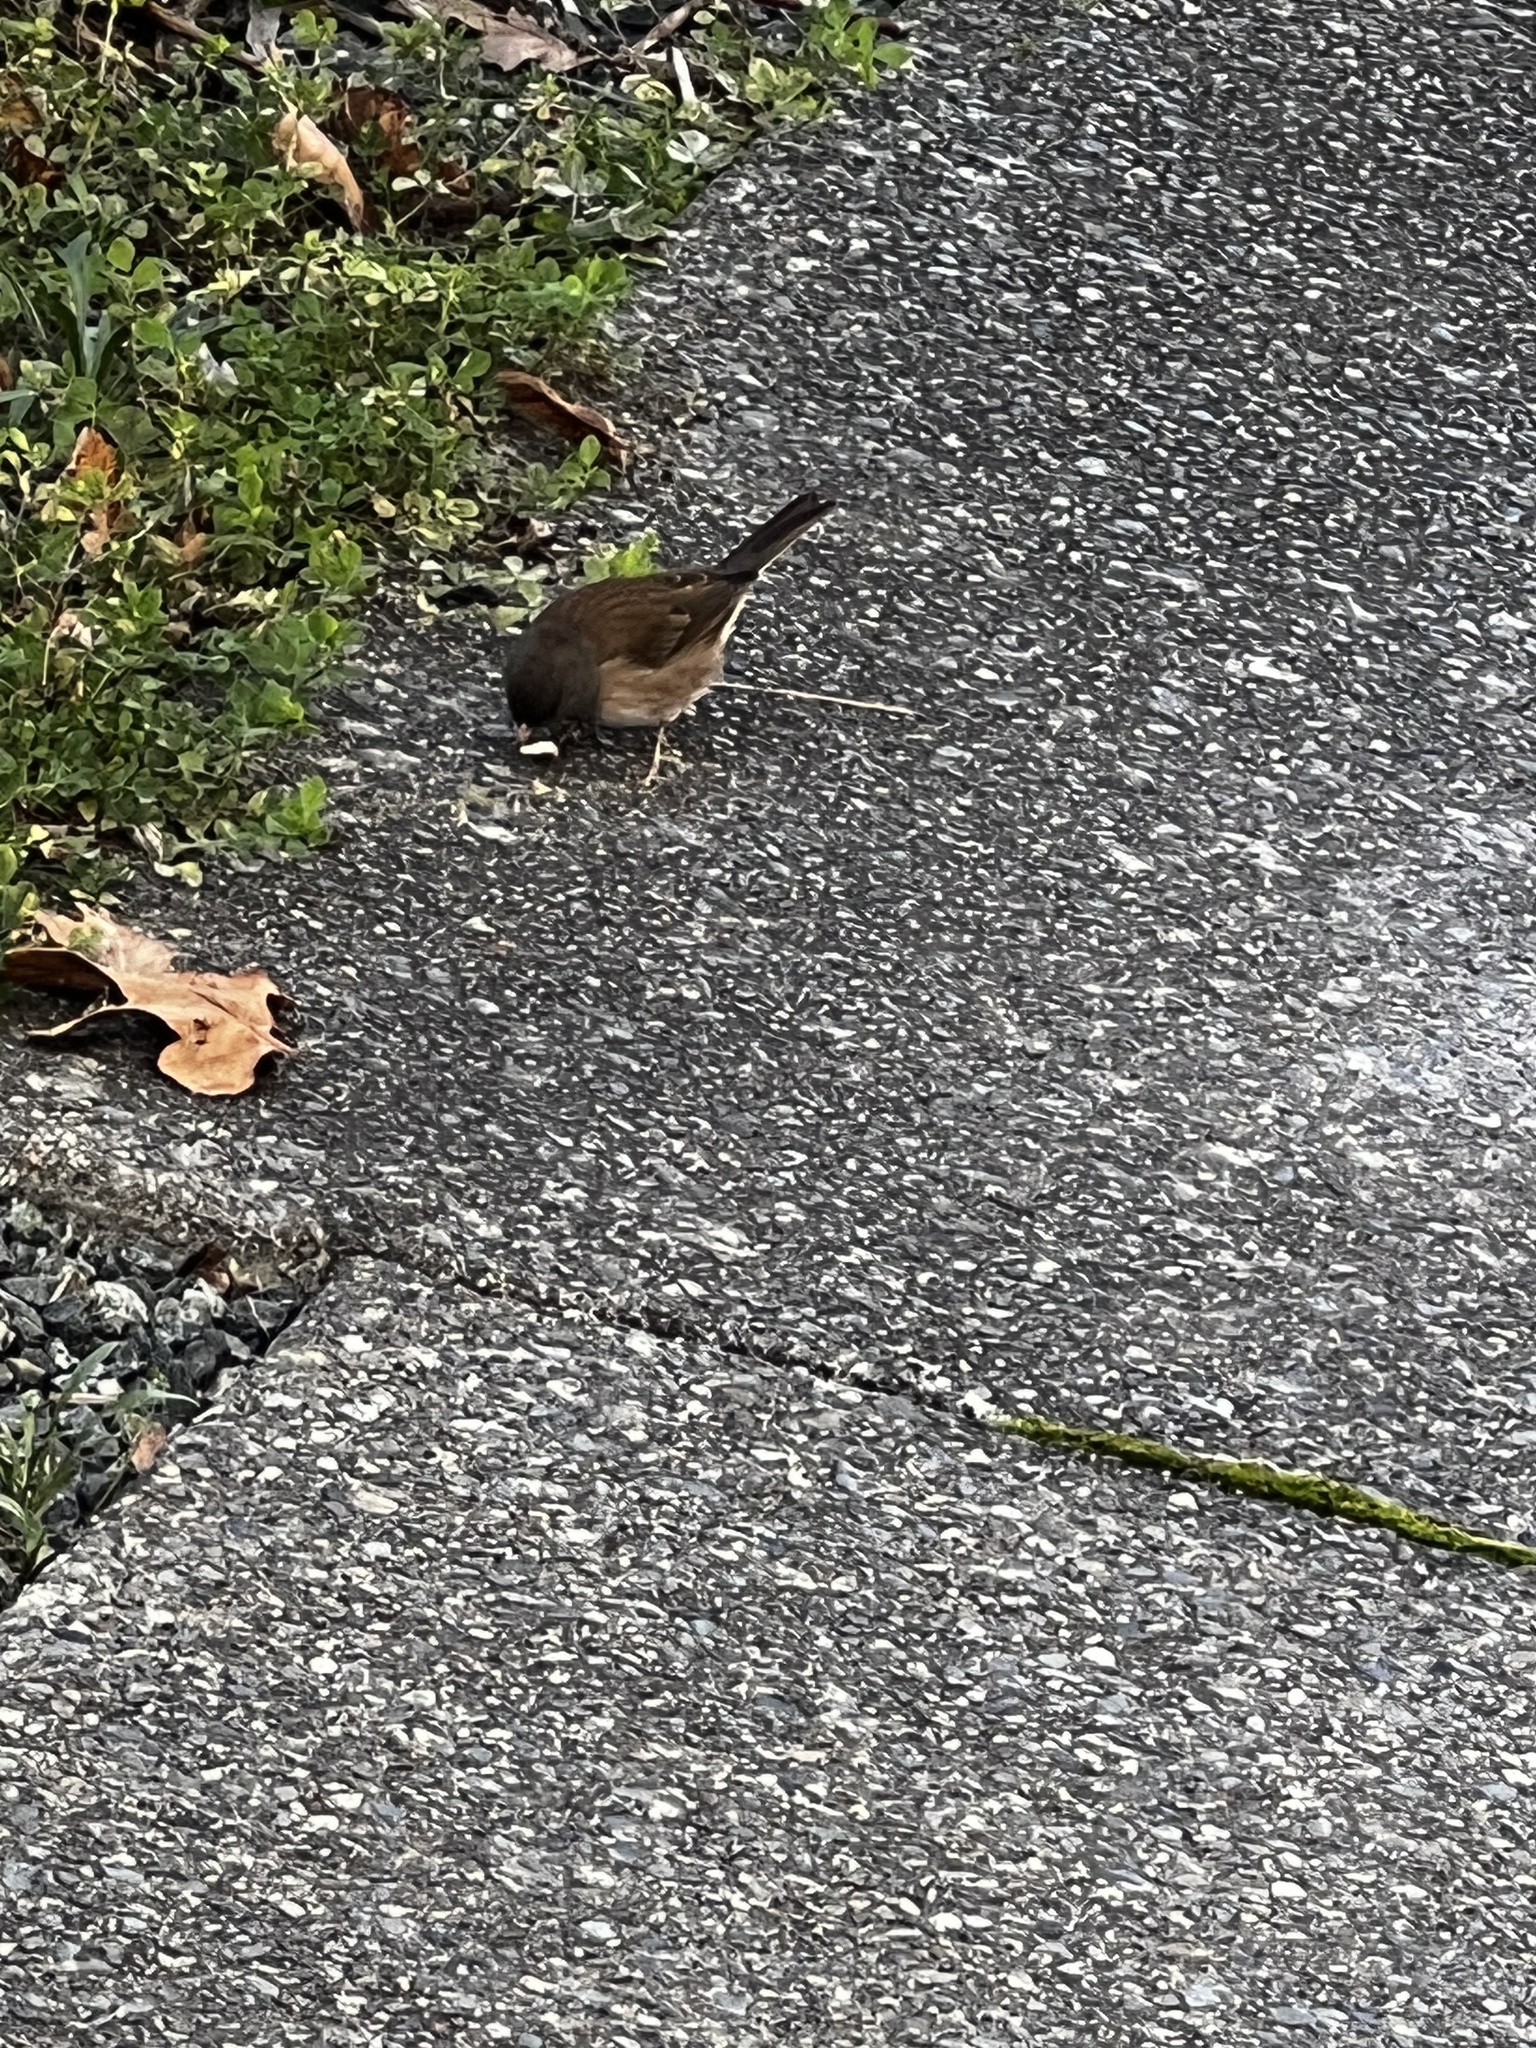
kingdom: Animalia
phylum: Chordata
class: Aves
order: Passeriformes
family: Passerellidae
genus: Junco
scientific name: Junco hyemalis
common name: Dark-eyed junco
